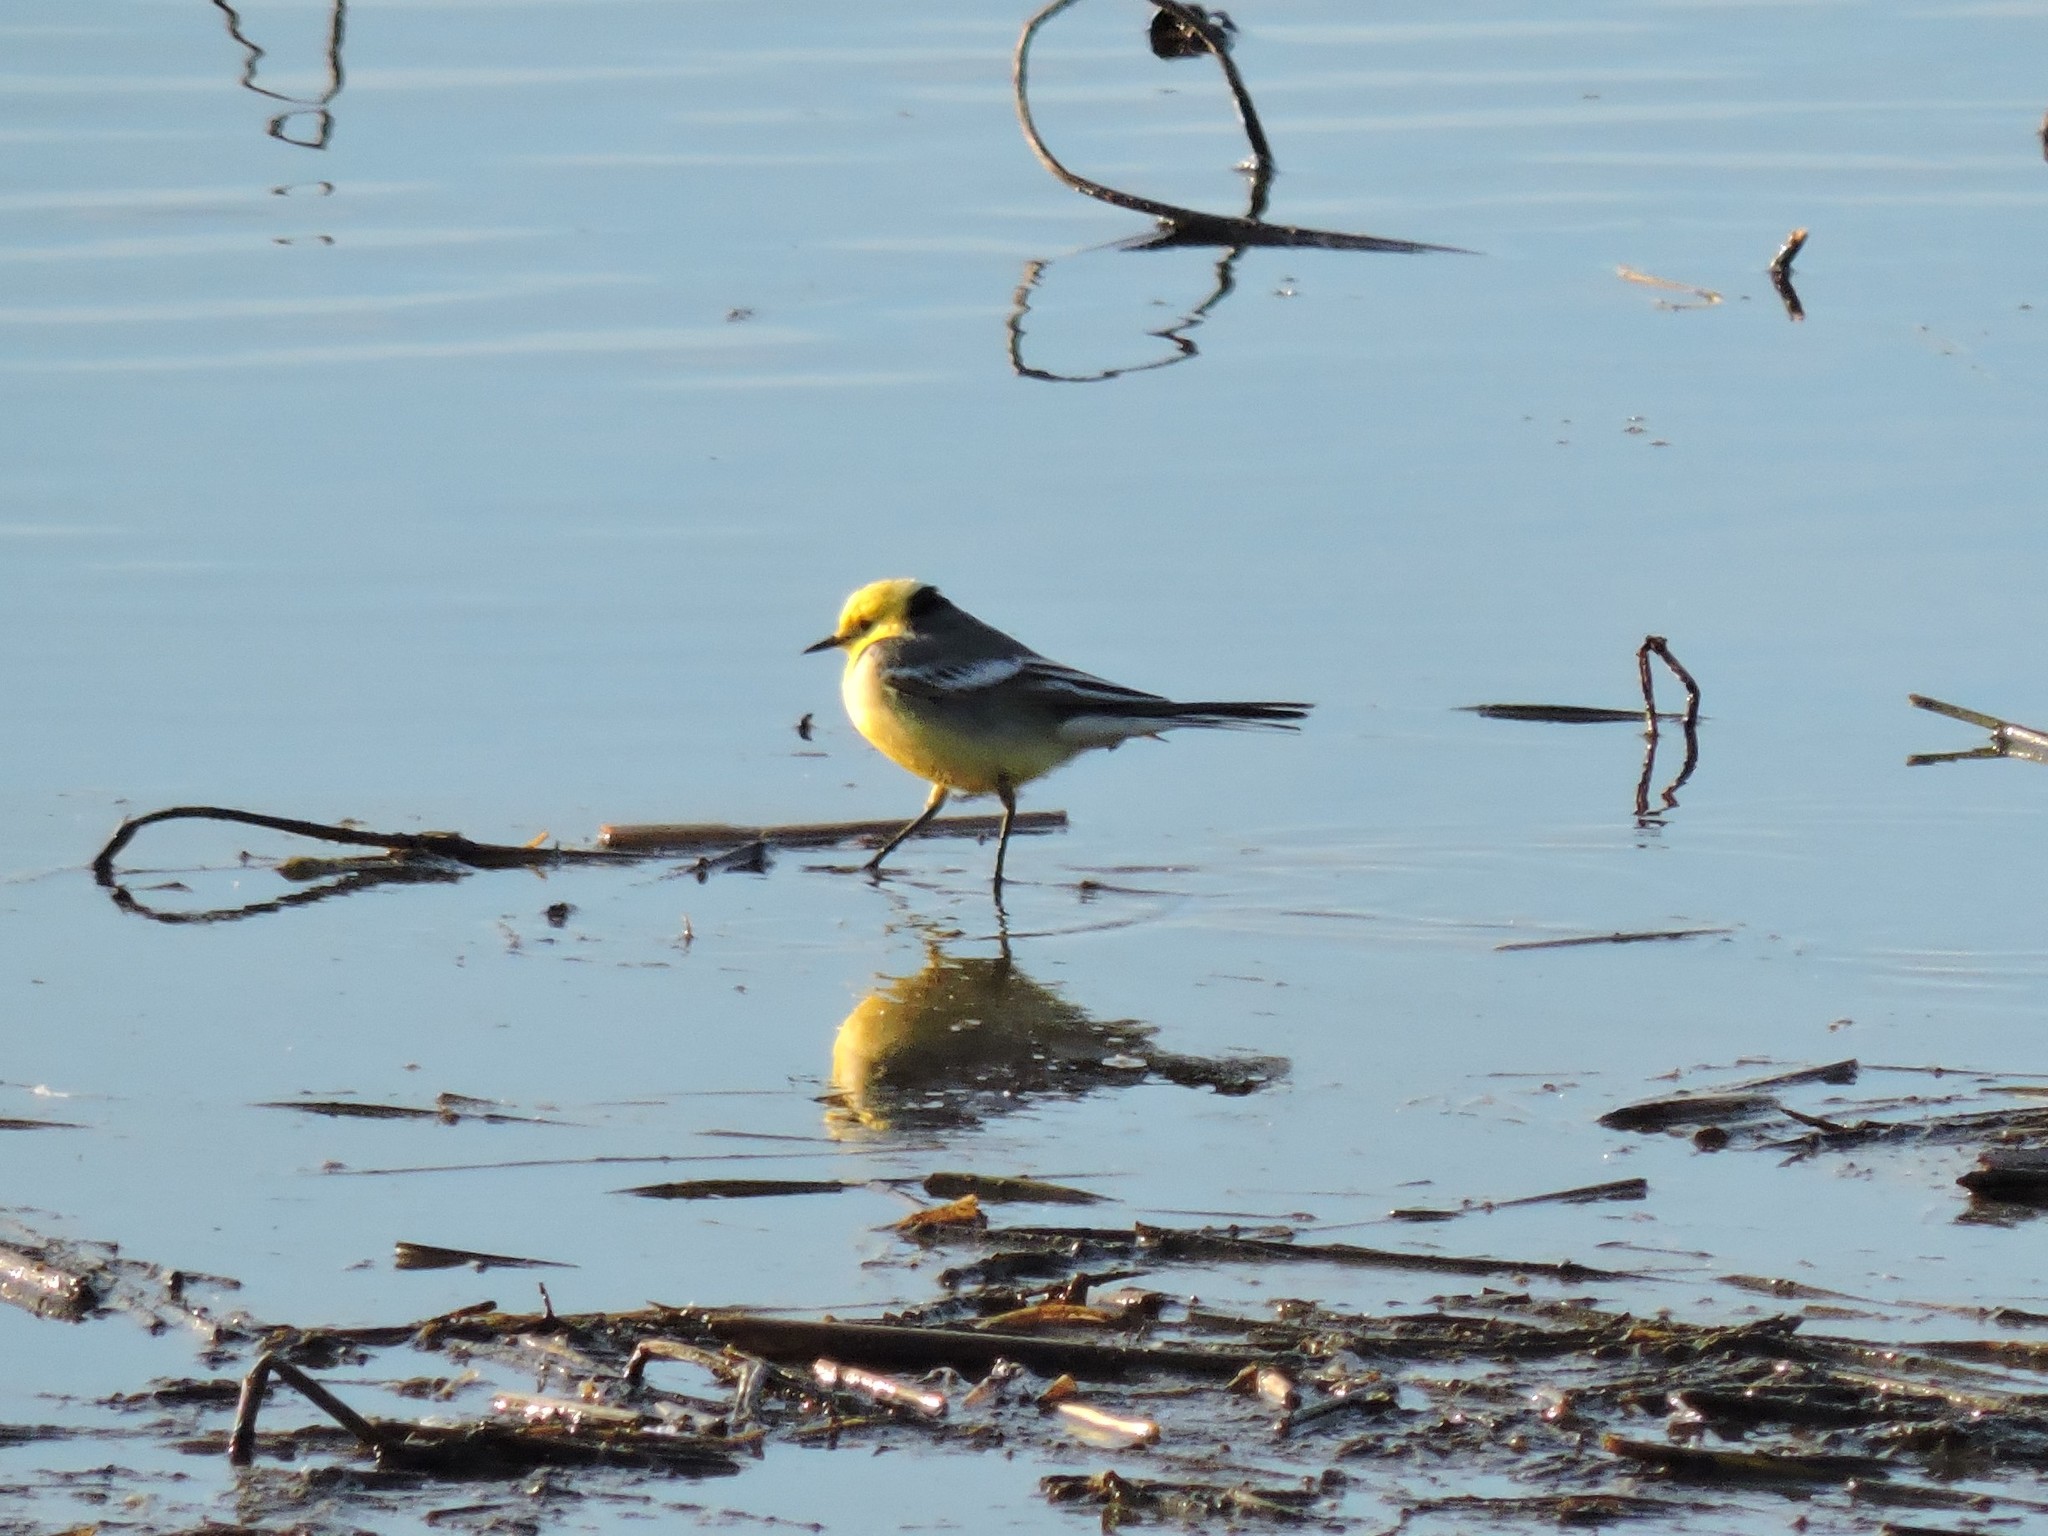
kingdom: Animalia
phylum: Chordata
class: Aves
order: Passeriformes
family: Motacillidae
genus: Motacilla
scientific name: Motacilla citreola
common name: Citrine wagtail
